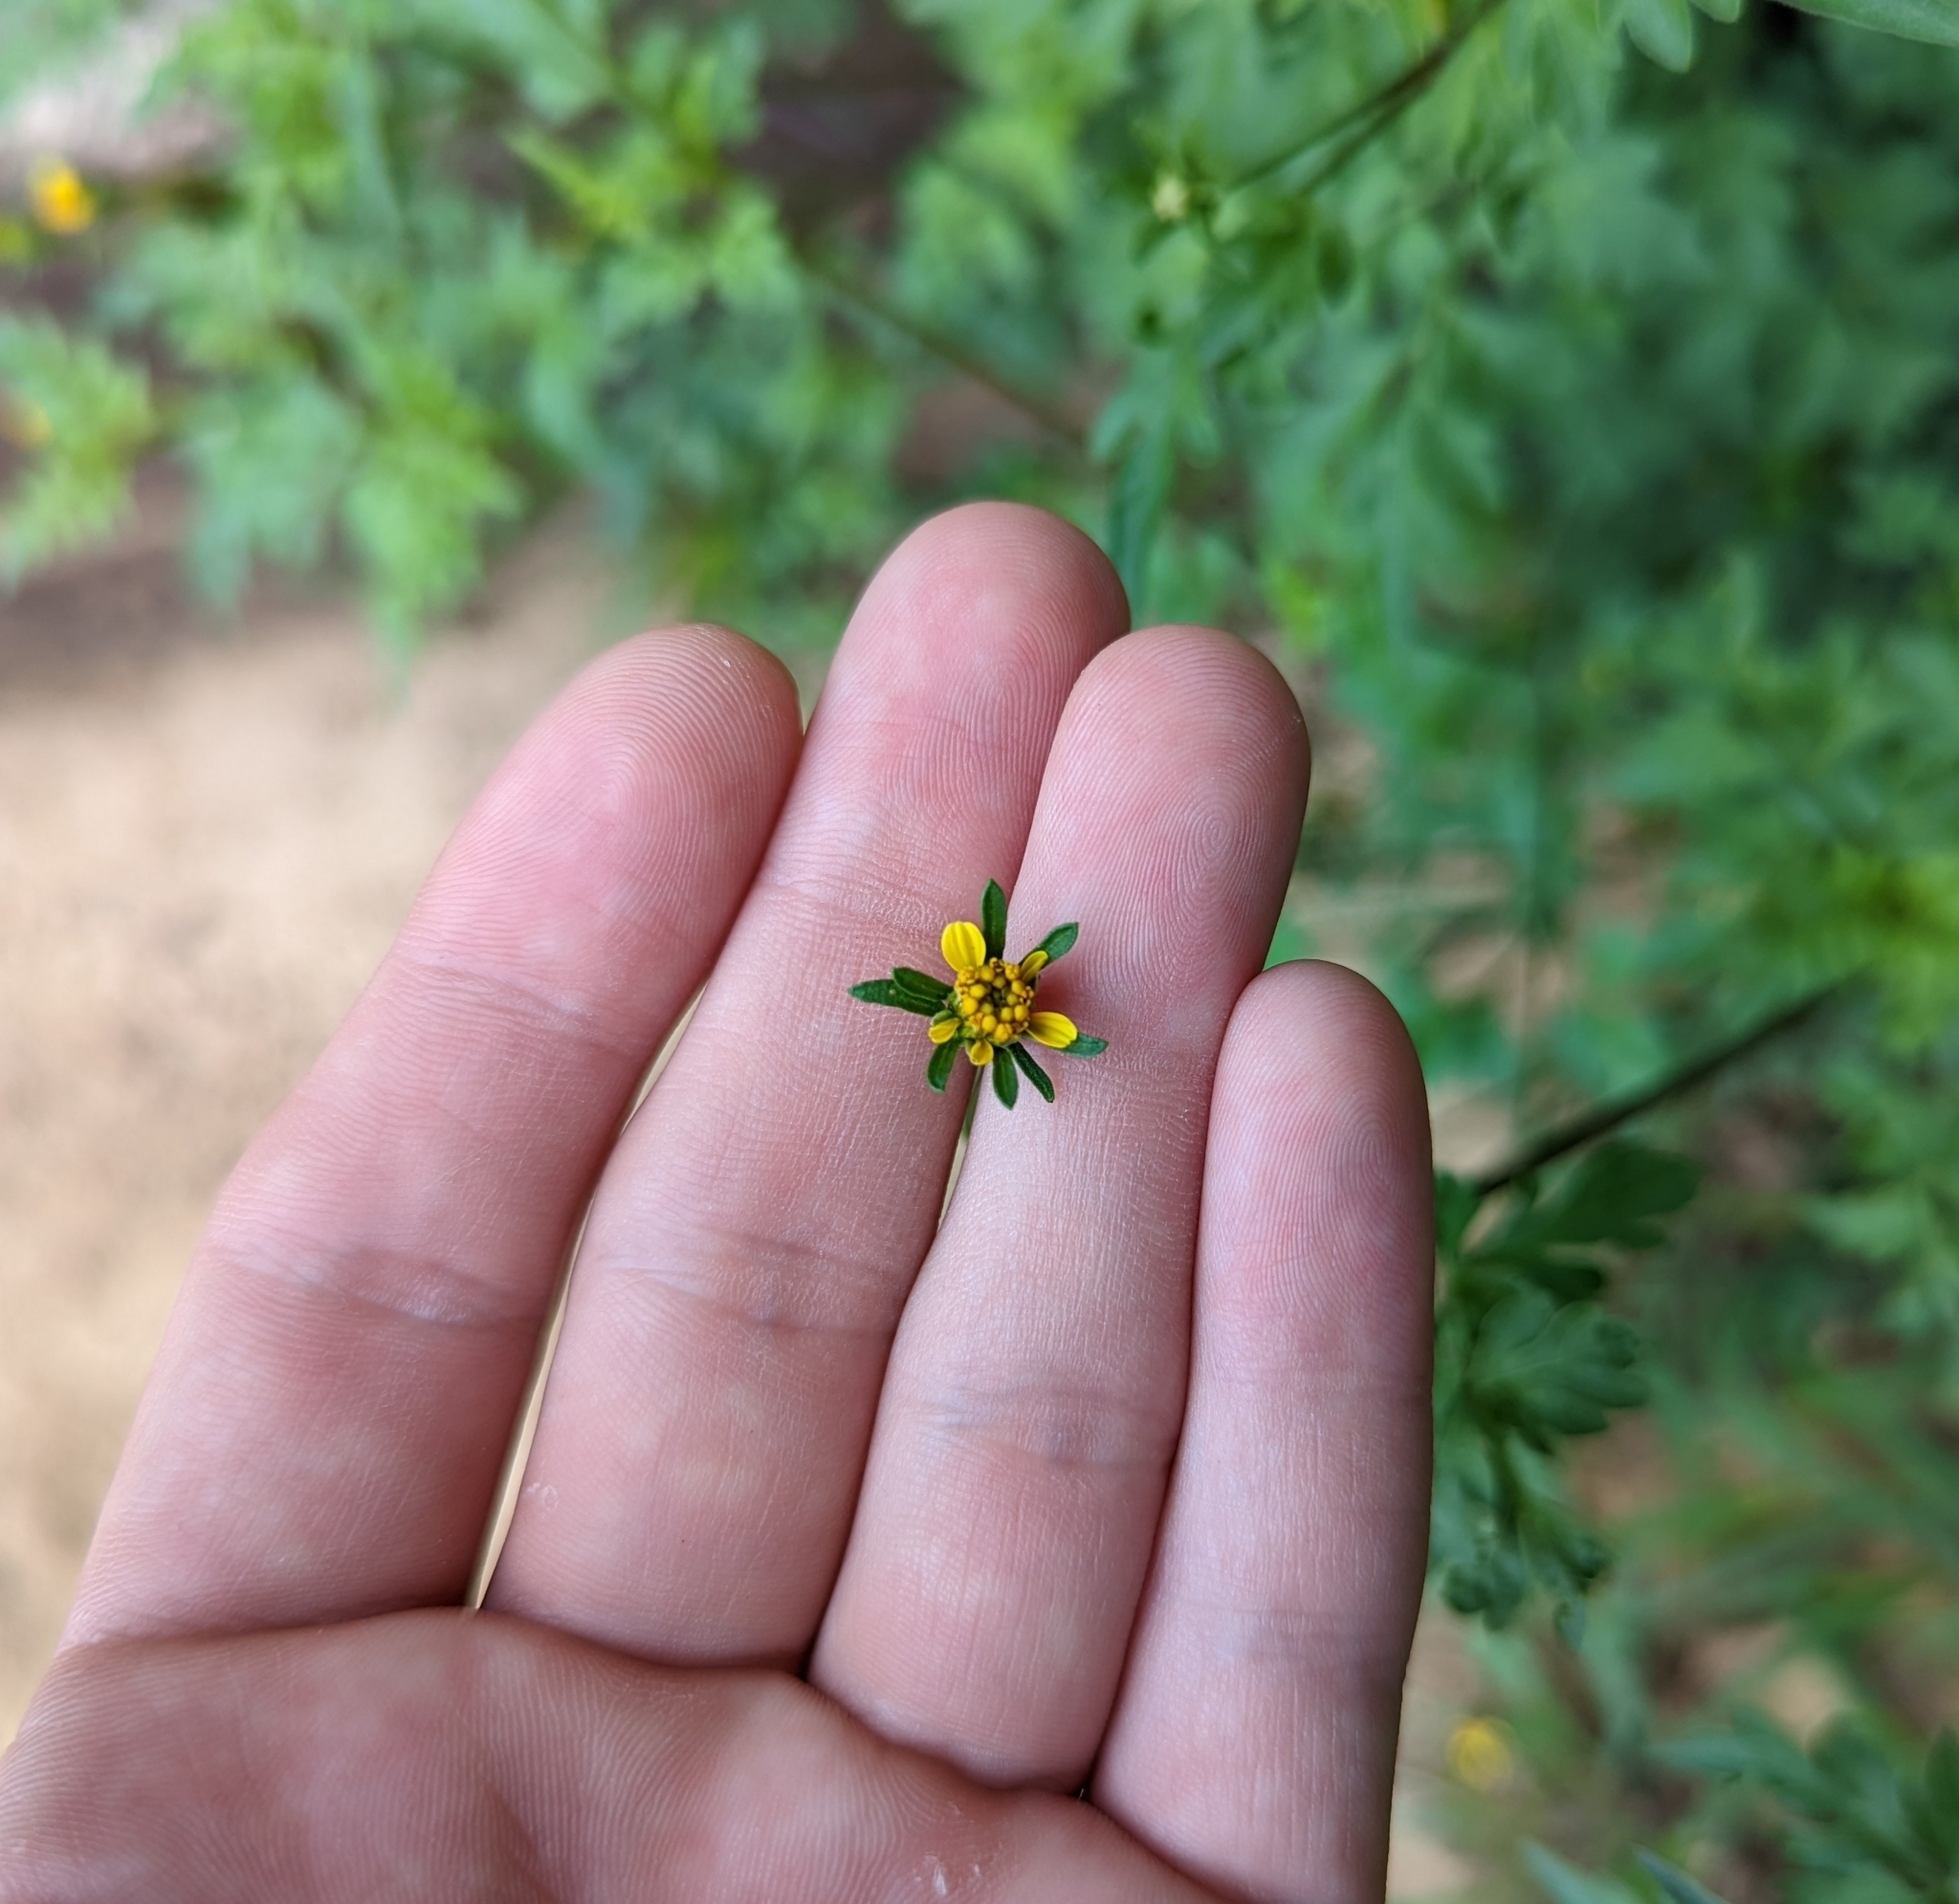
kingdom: Plantae
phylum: Tracheophyta
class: Magnoliopsida
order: Asterales
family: Asteraceae
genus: Bidens
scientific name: Bidens bipinnata
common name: Spanish-needles
